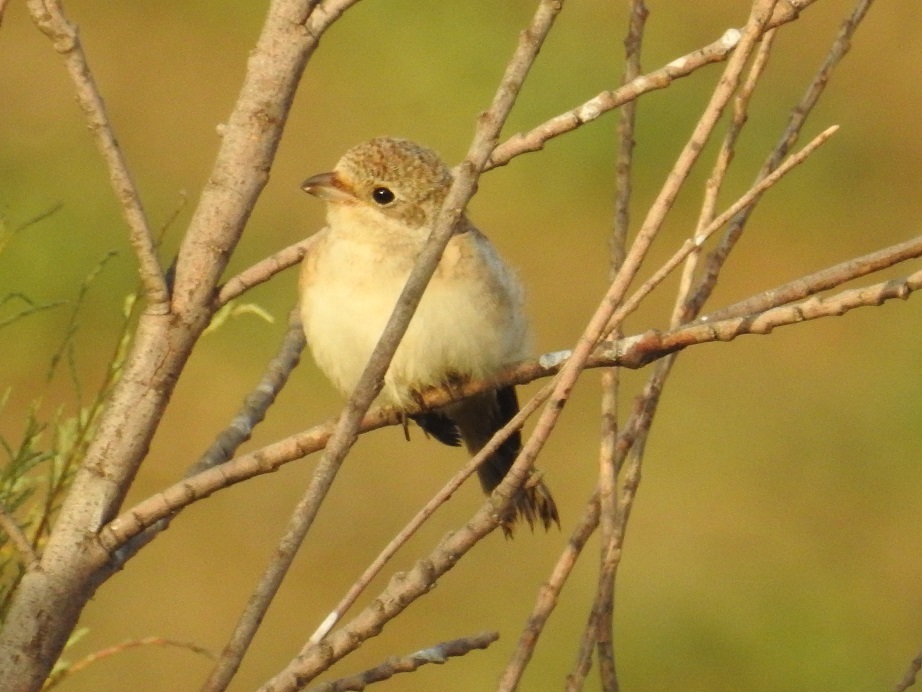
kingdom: Animalia
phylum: Chordata
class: Aves
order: Passeriformes
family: Laniidae
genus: Lanius
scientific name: Lanius senator
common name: Woodchat shrike
